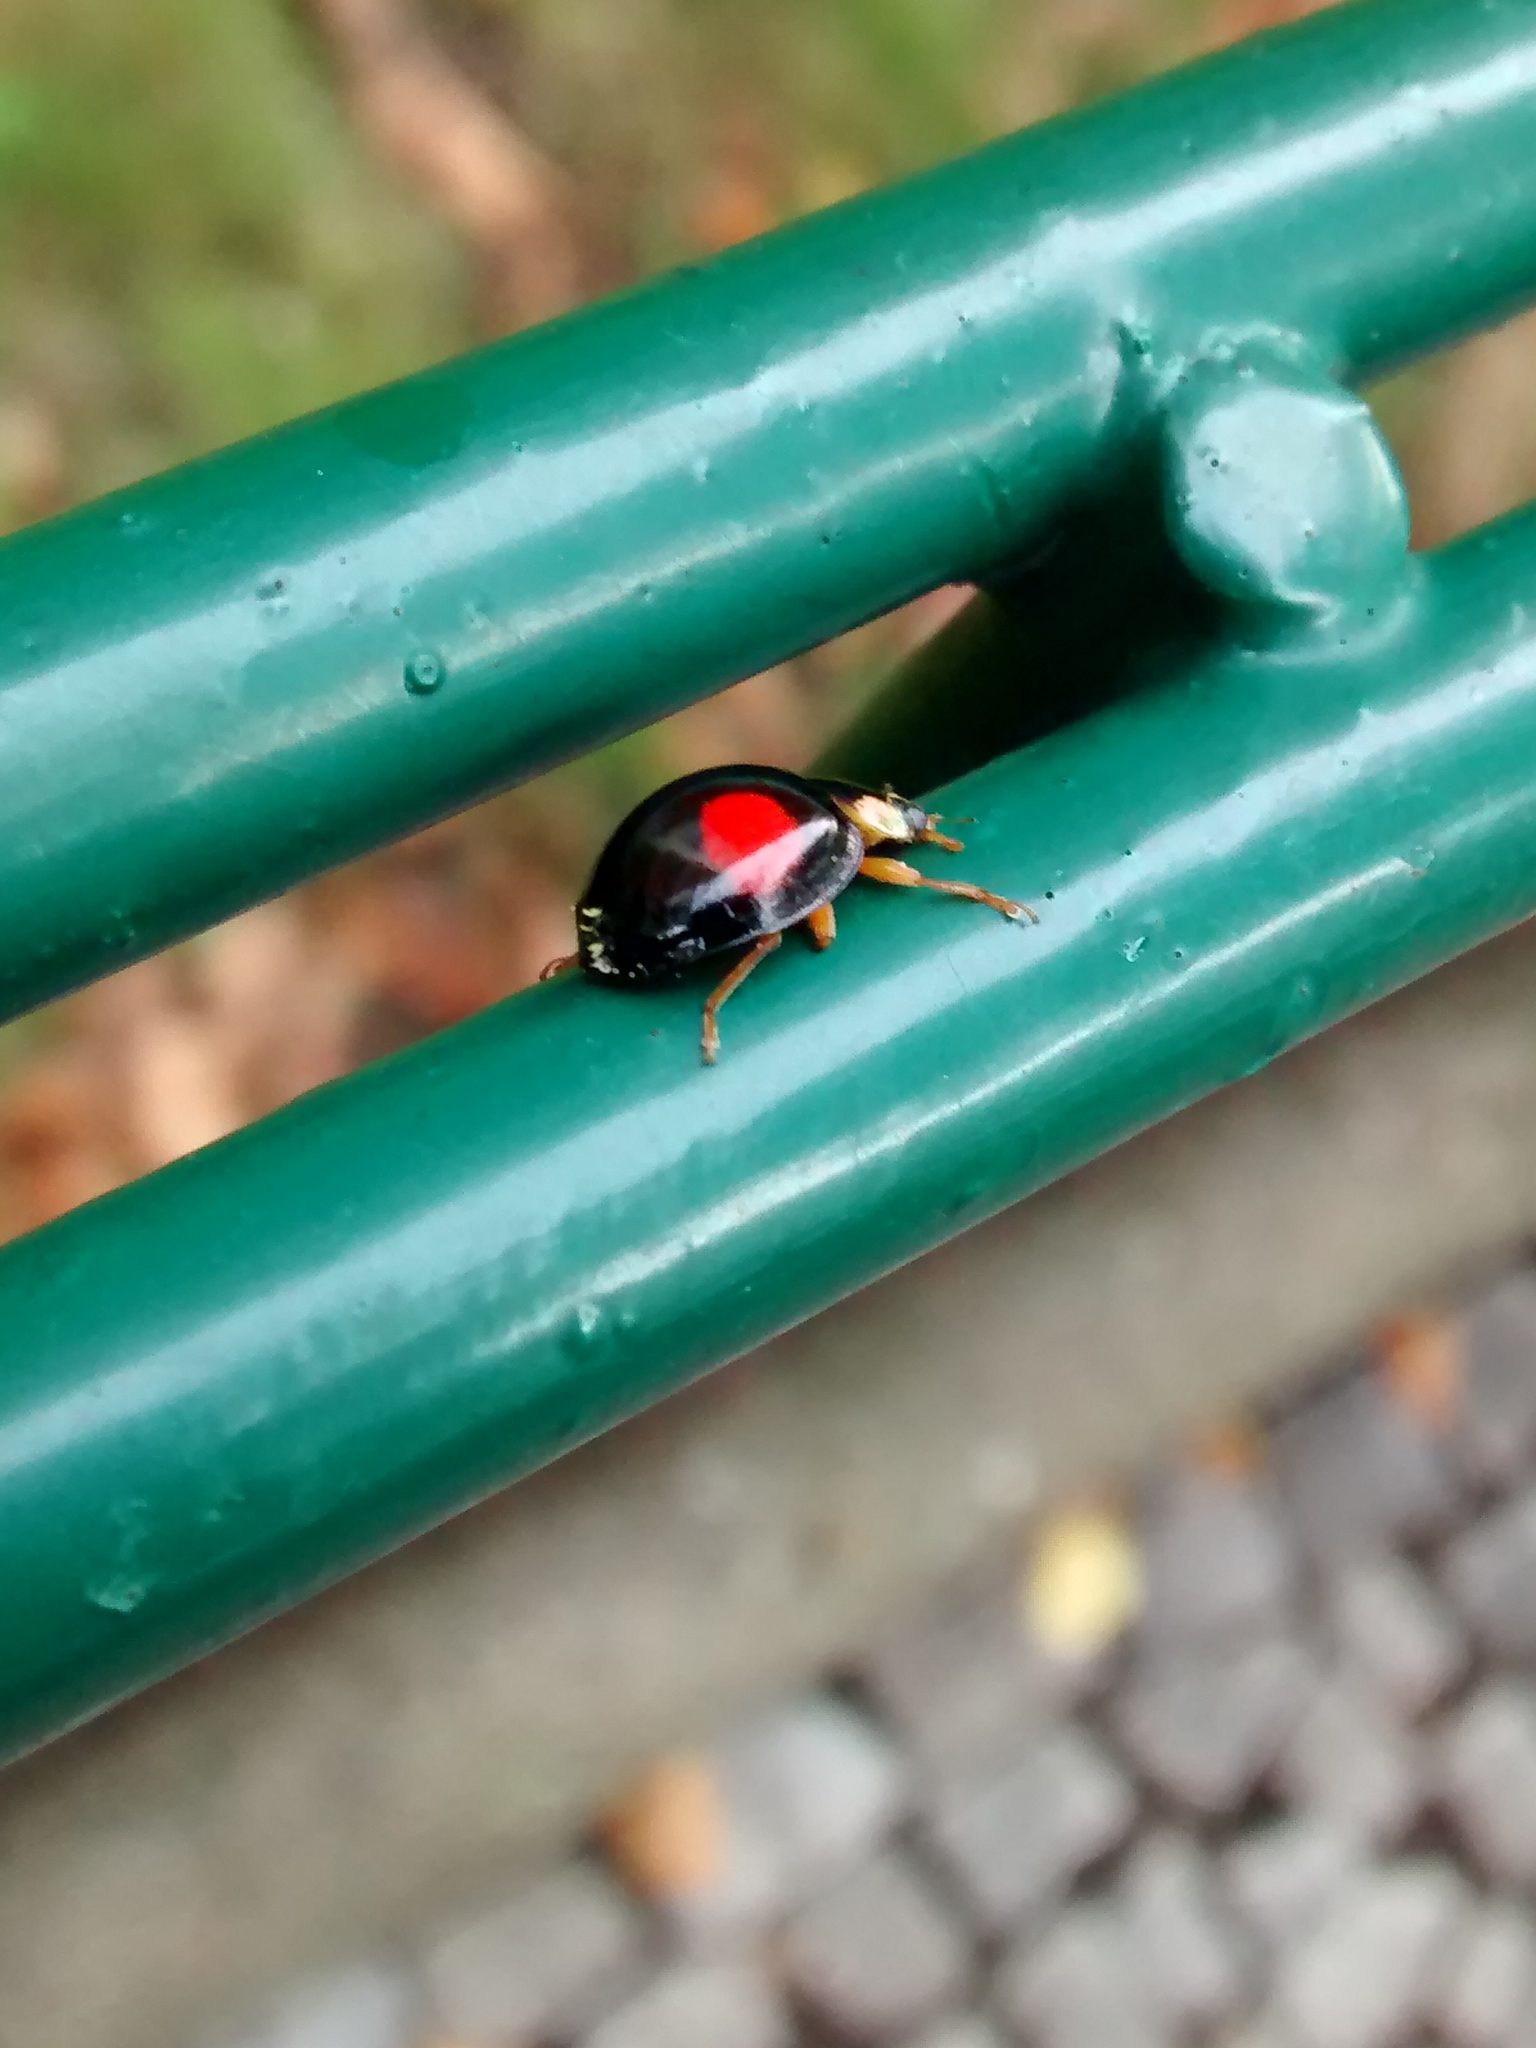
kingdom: Animalia
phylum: Arthropoda
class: Insecta
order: Coleoptera
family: Coccinellidae
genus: Harmonia
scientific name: Harmonia axyridis
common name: Harlequin ladybird
